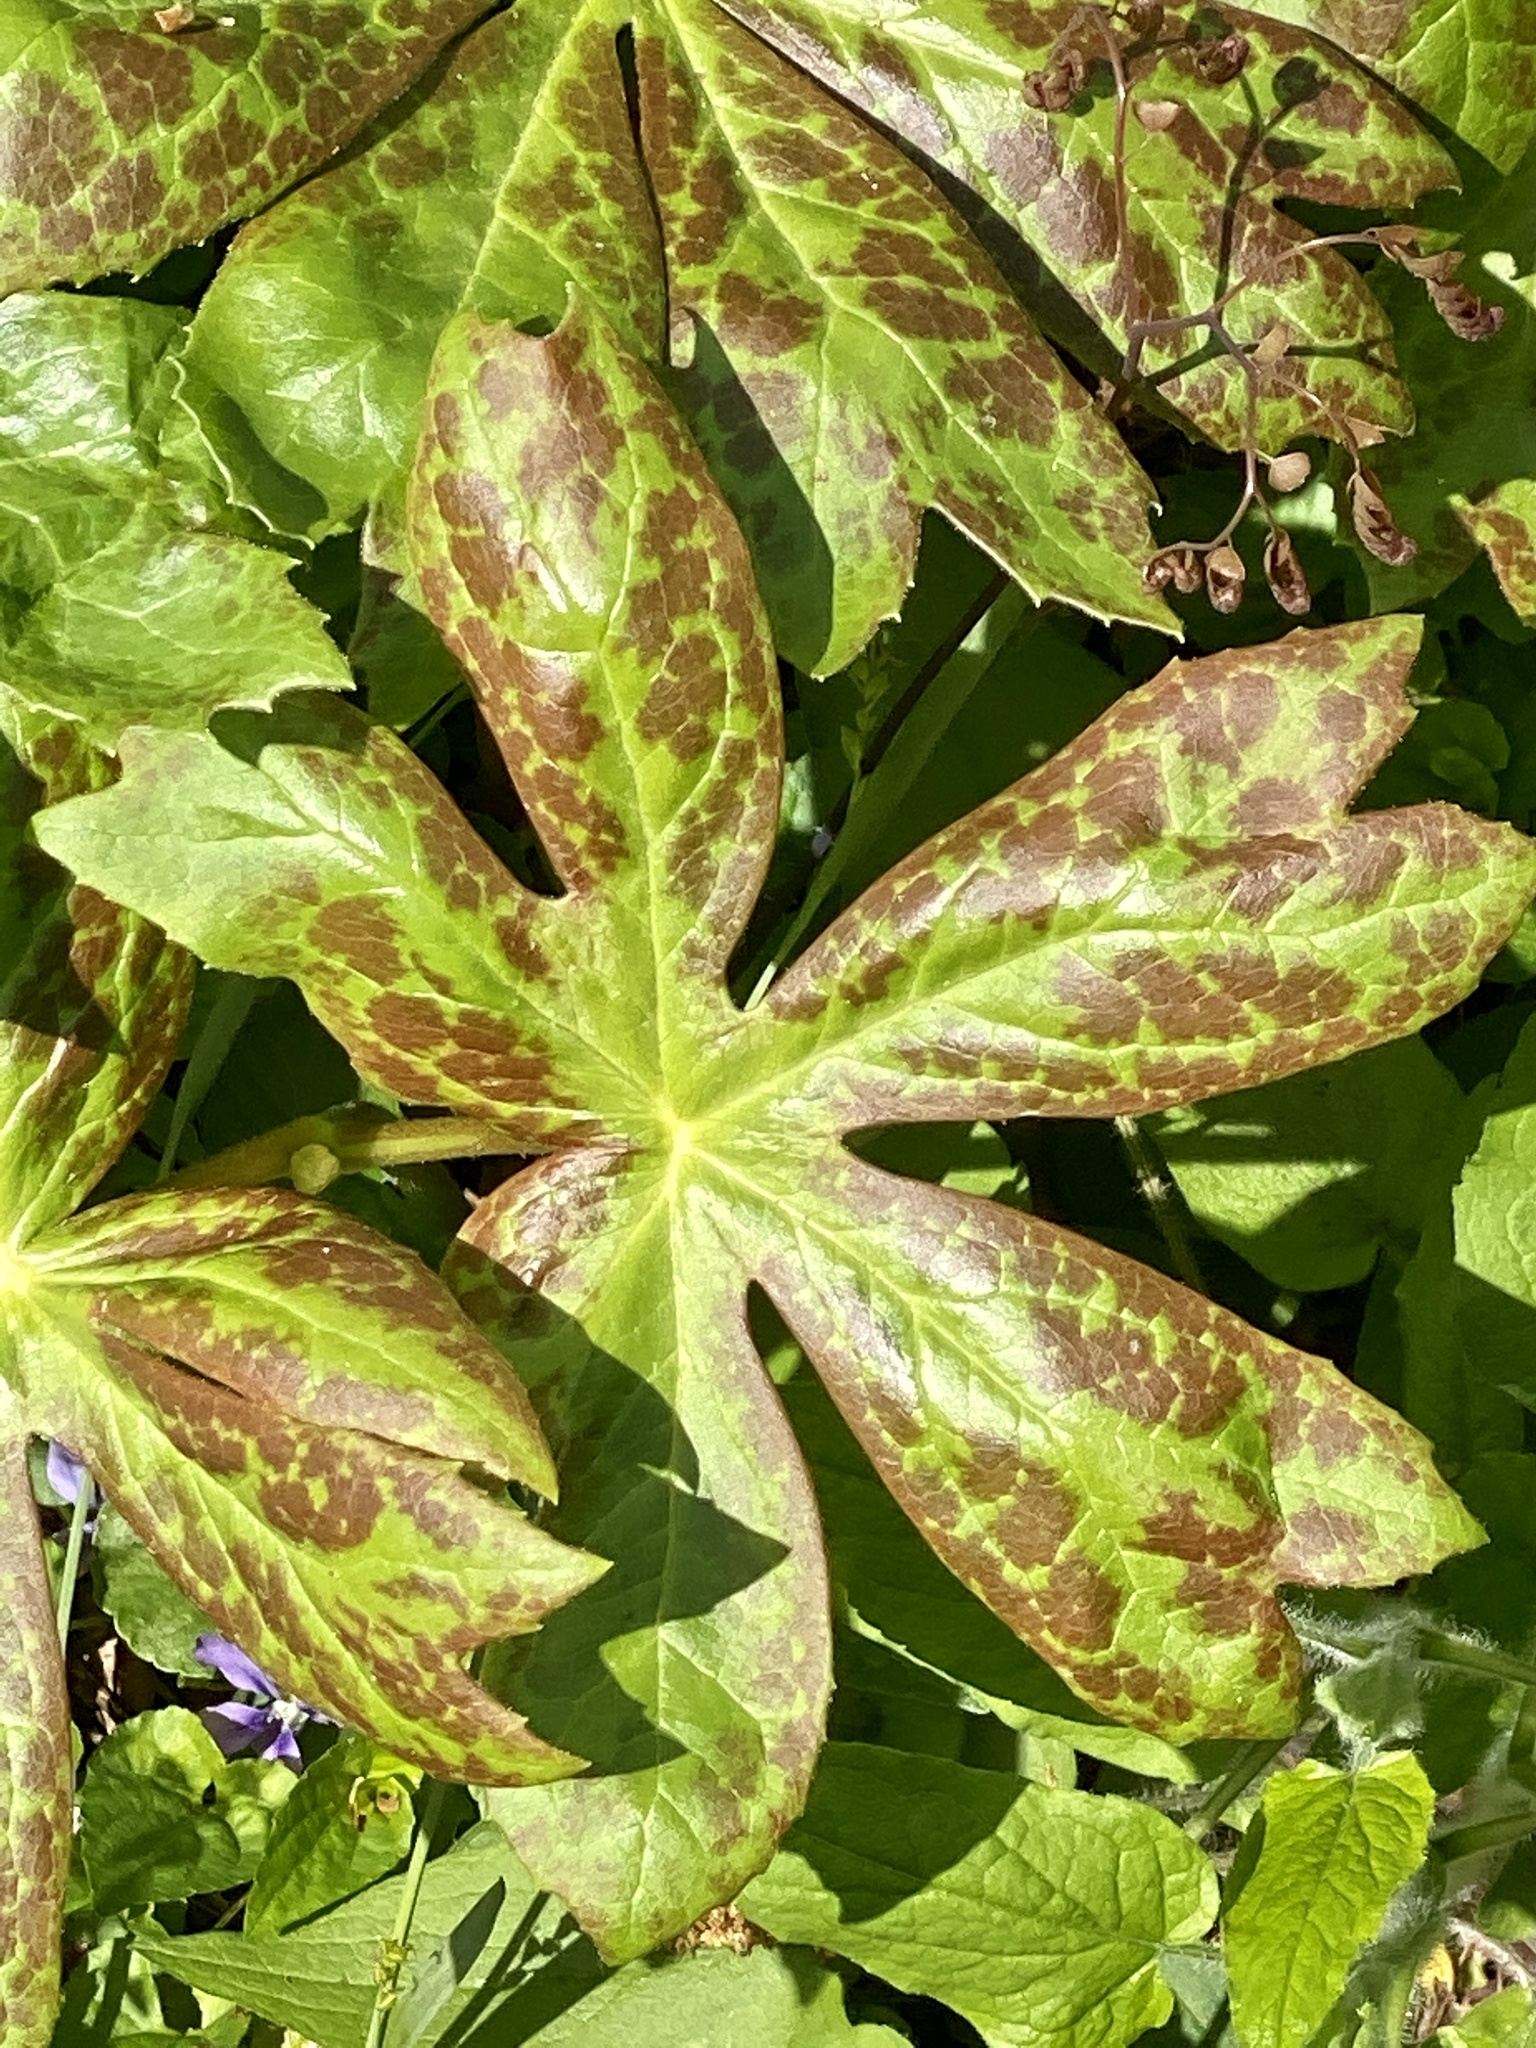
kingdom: Plantae
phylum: Tracheophyta
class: Magnoliopsida
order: Ranunculales
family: Berberidaceae
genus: Podophyllum
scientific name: Podophyllum peltatum
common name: Wild mandrake
